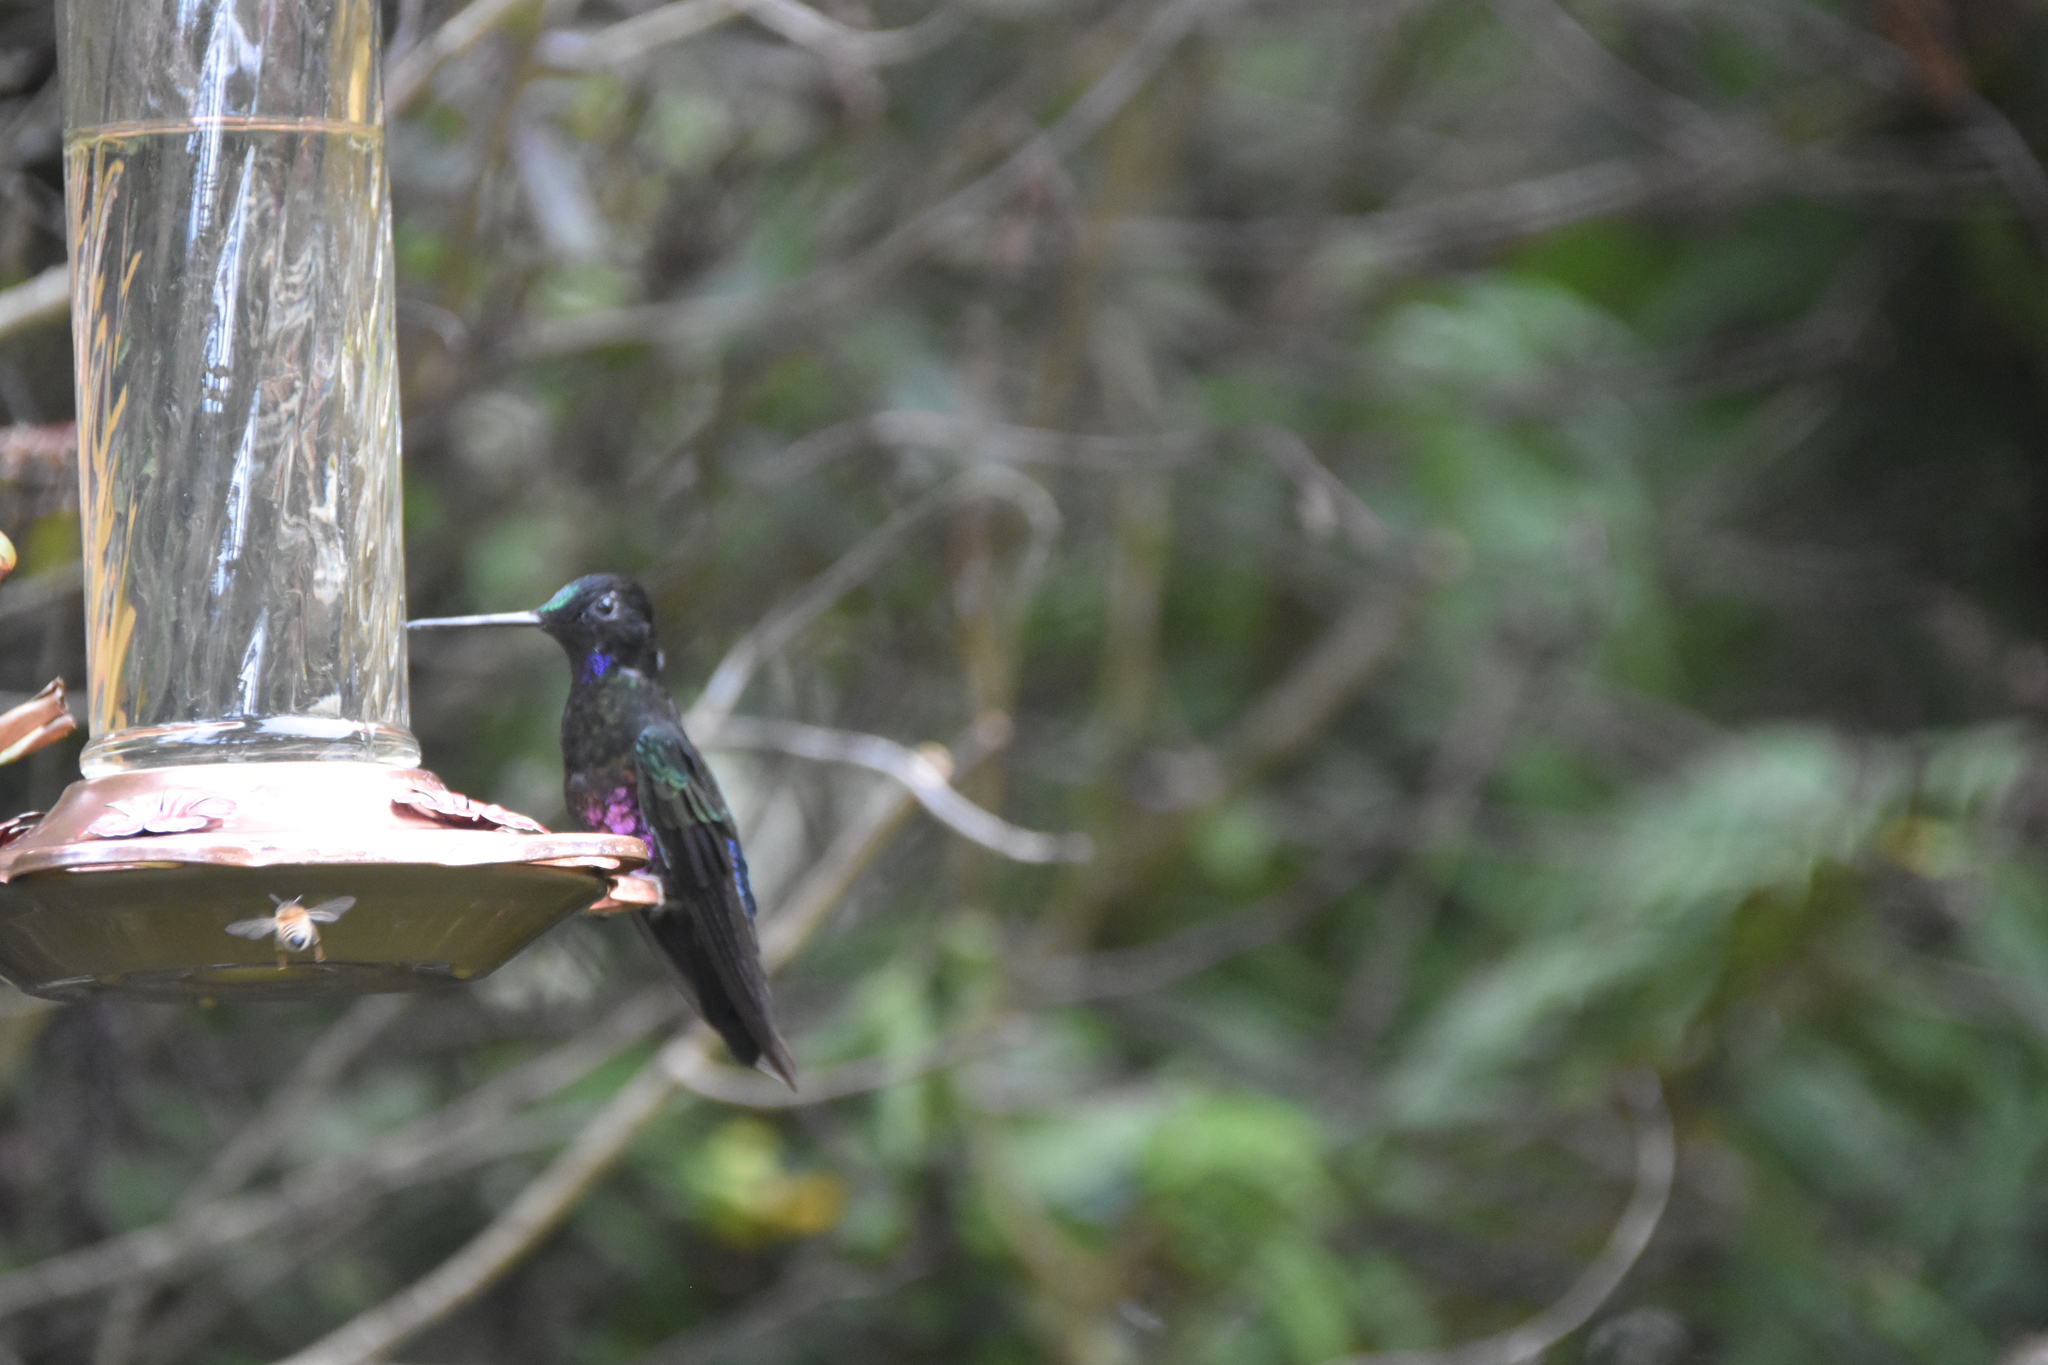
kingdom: Animalia
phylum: Chordata
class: Aves
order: Apodiformes
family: Trochilidae
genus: Coeligena
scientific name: Coeligena helianthea
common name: Blue-throated starfrontlet
